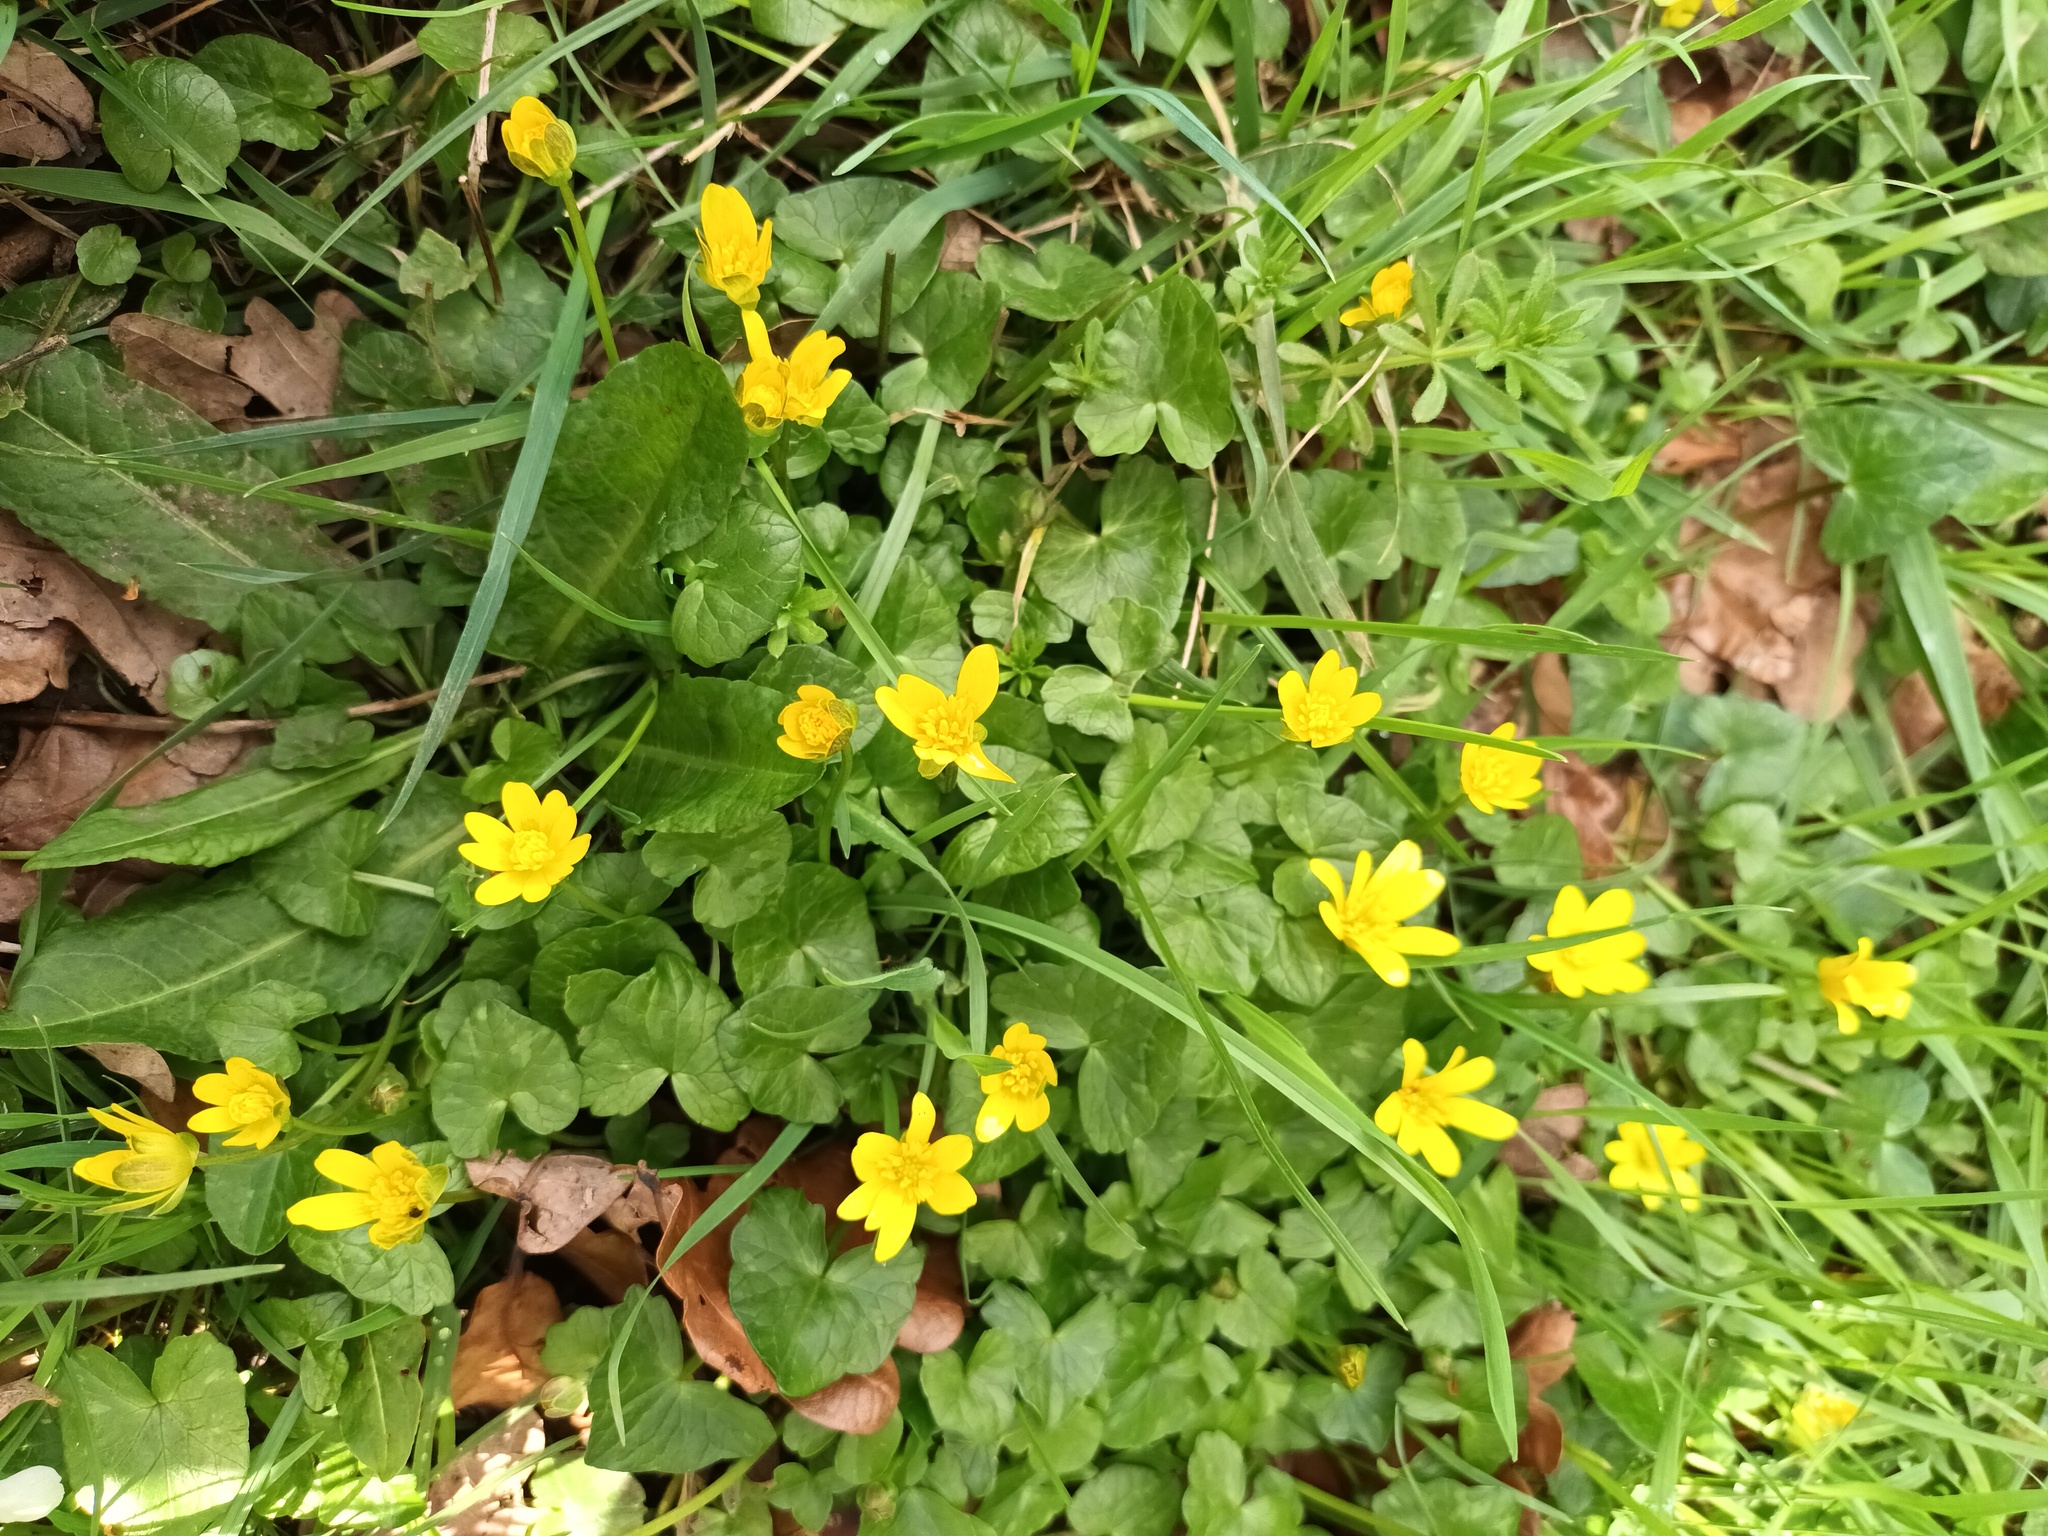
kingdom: Plantae
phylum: Tracheophyta
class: Magnoliopsida
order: Ranunculales
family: Ranunculaceae
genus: Ficaria
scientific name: Ficaria verna
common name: Lesser celandine
